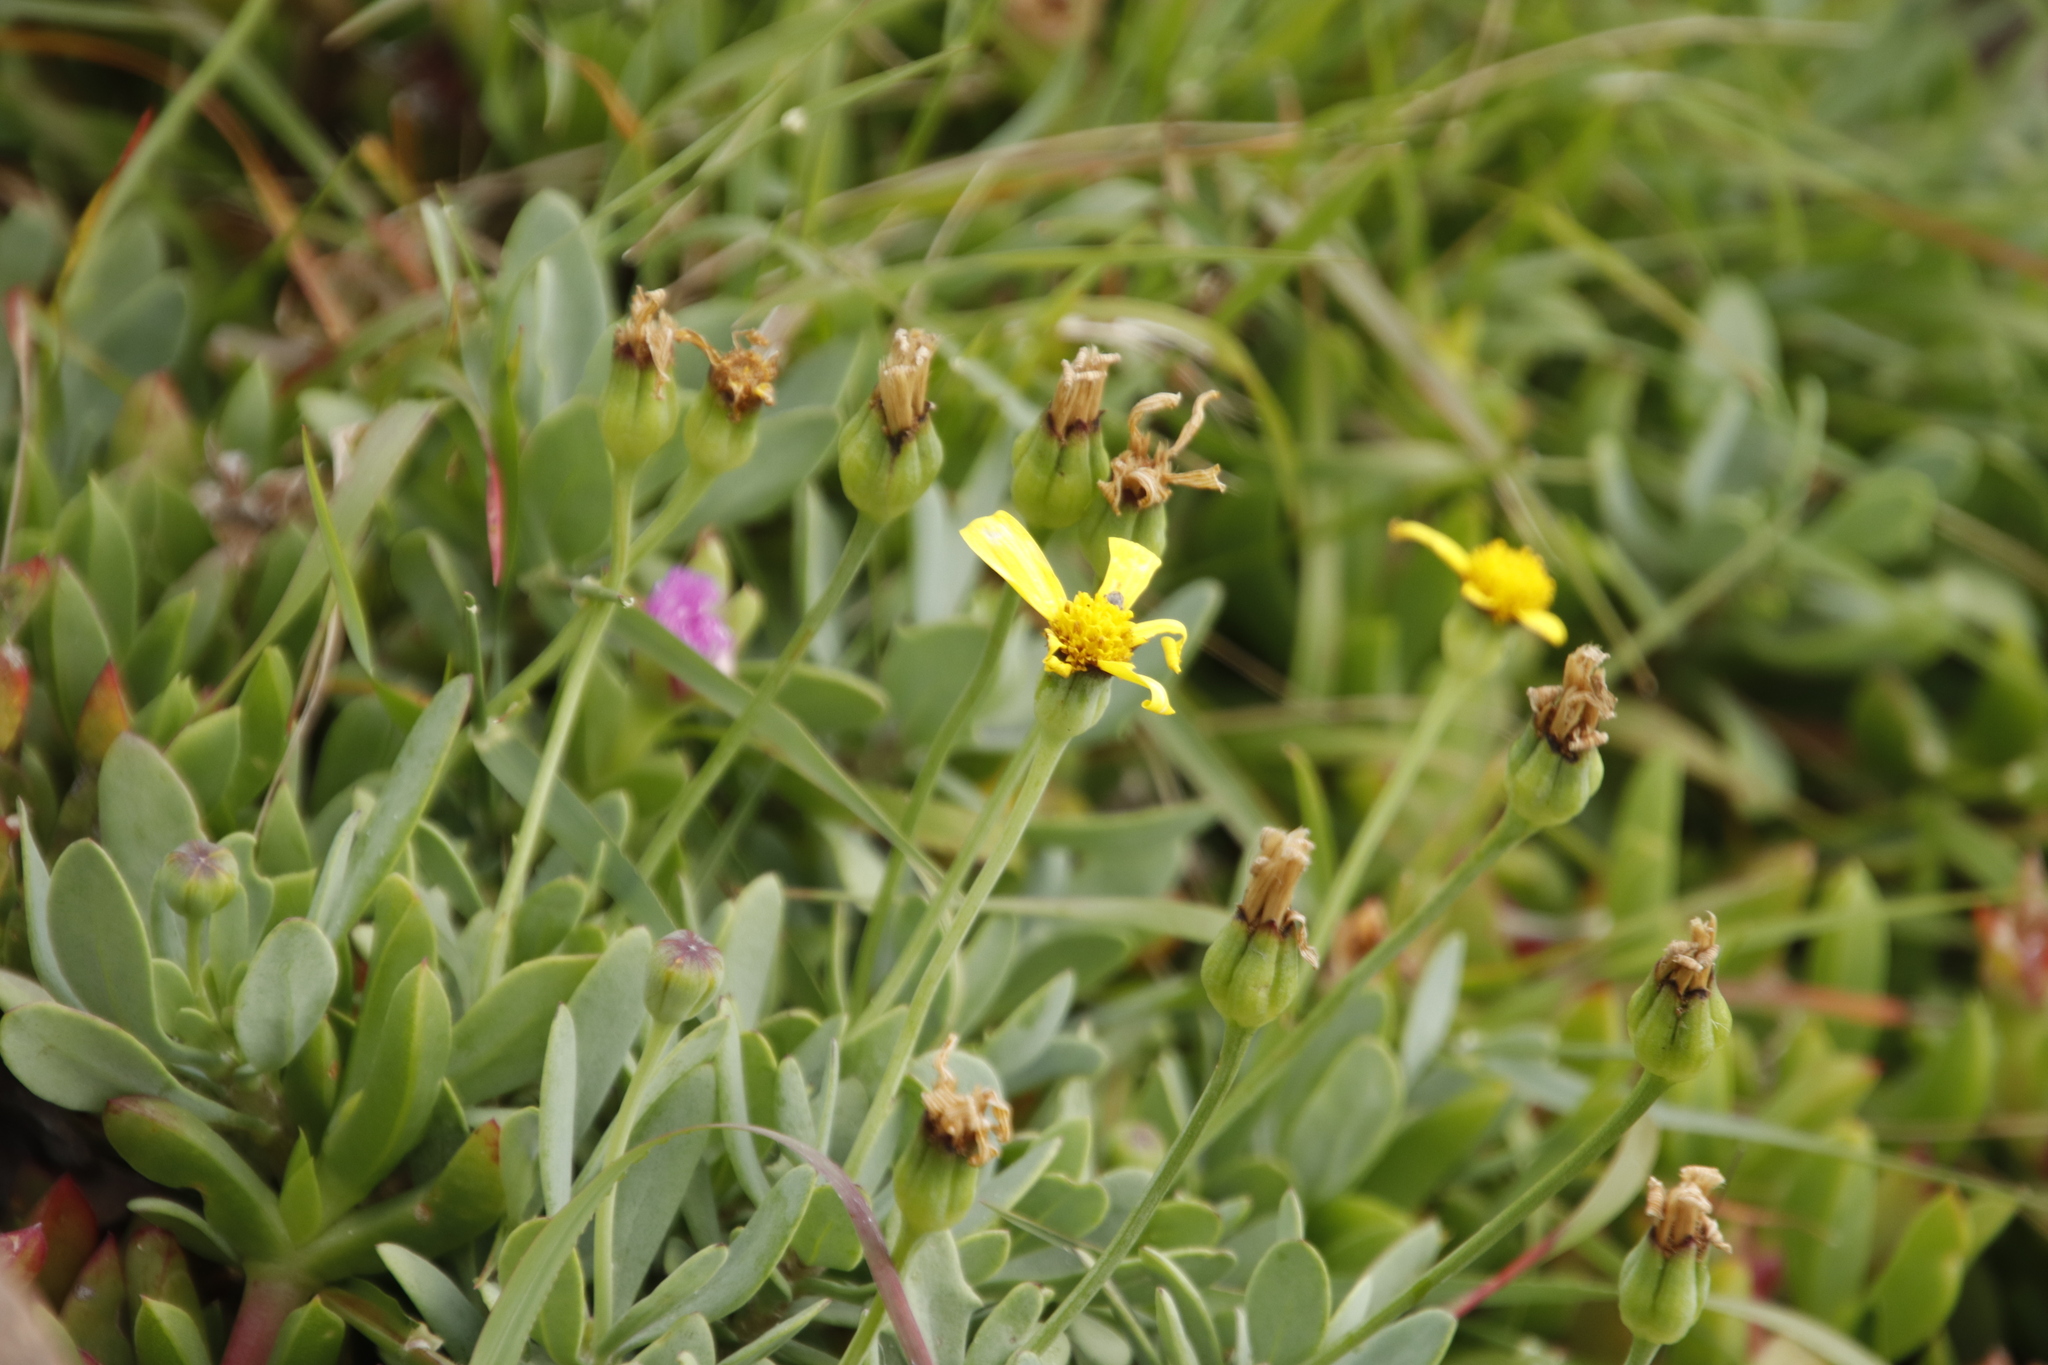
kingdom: Plantae
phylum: Tracheophyta
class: Magnoliopsida
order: Asterales
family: Asteraceae
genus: Othonna
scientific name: Othonna arborescens
